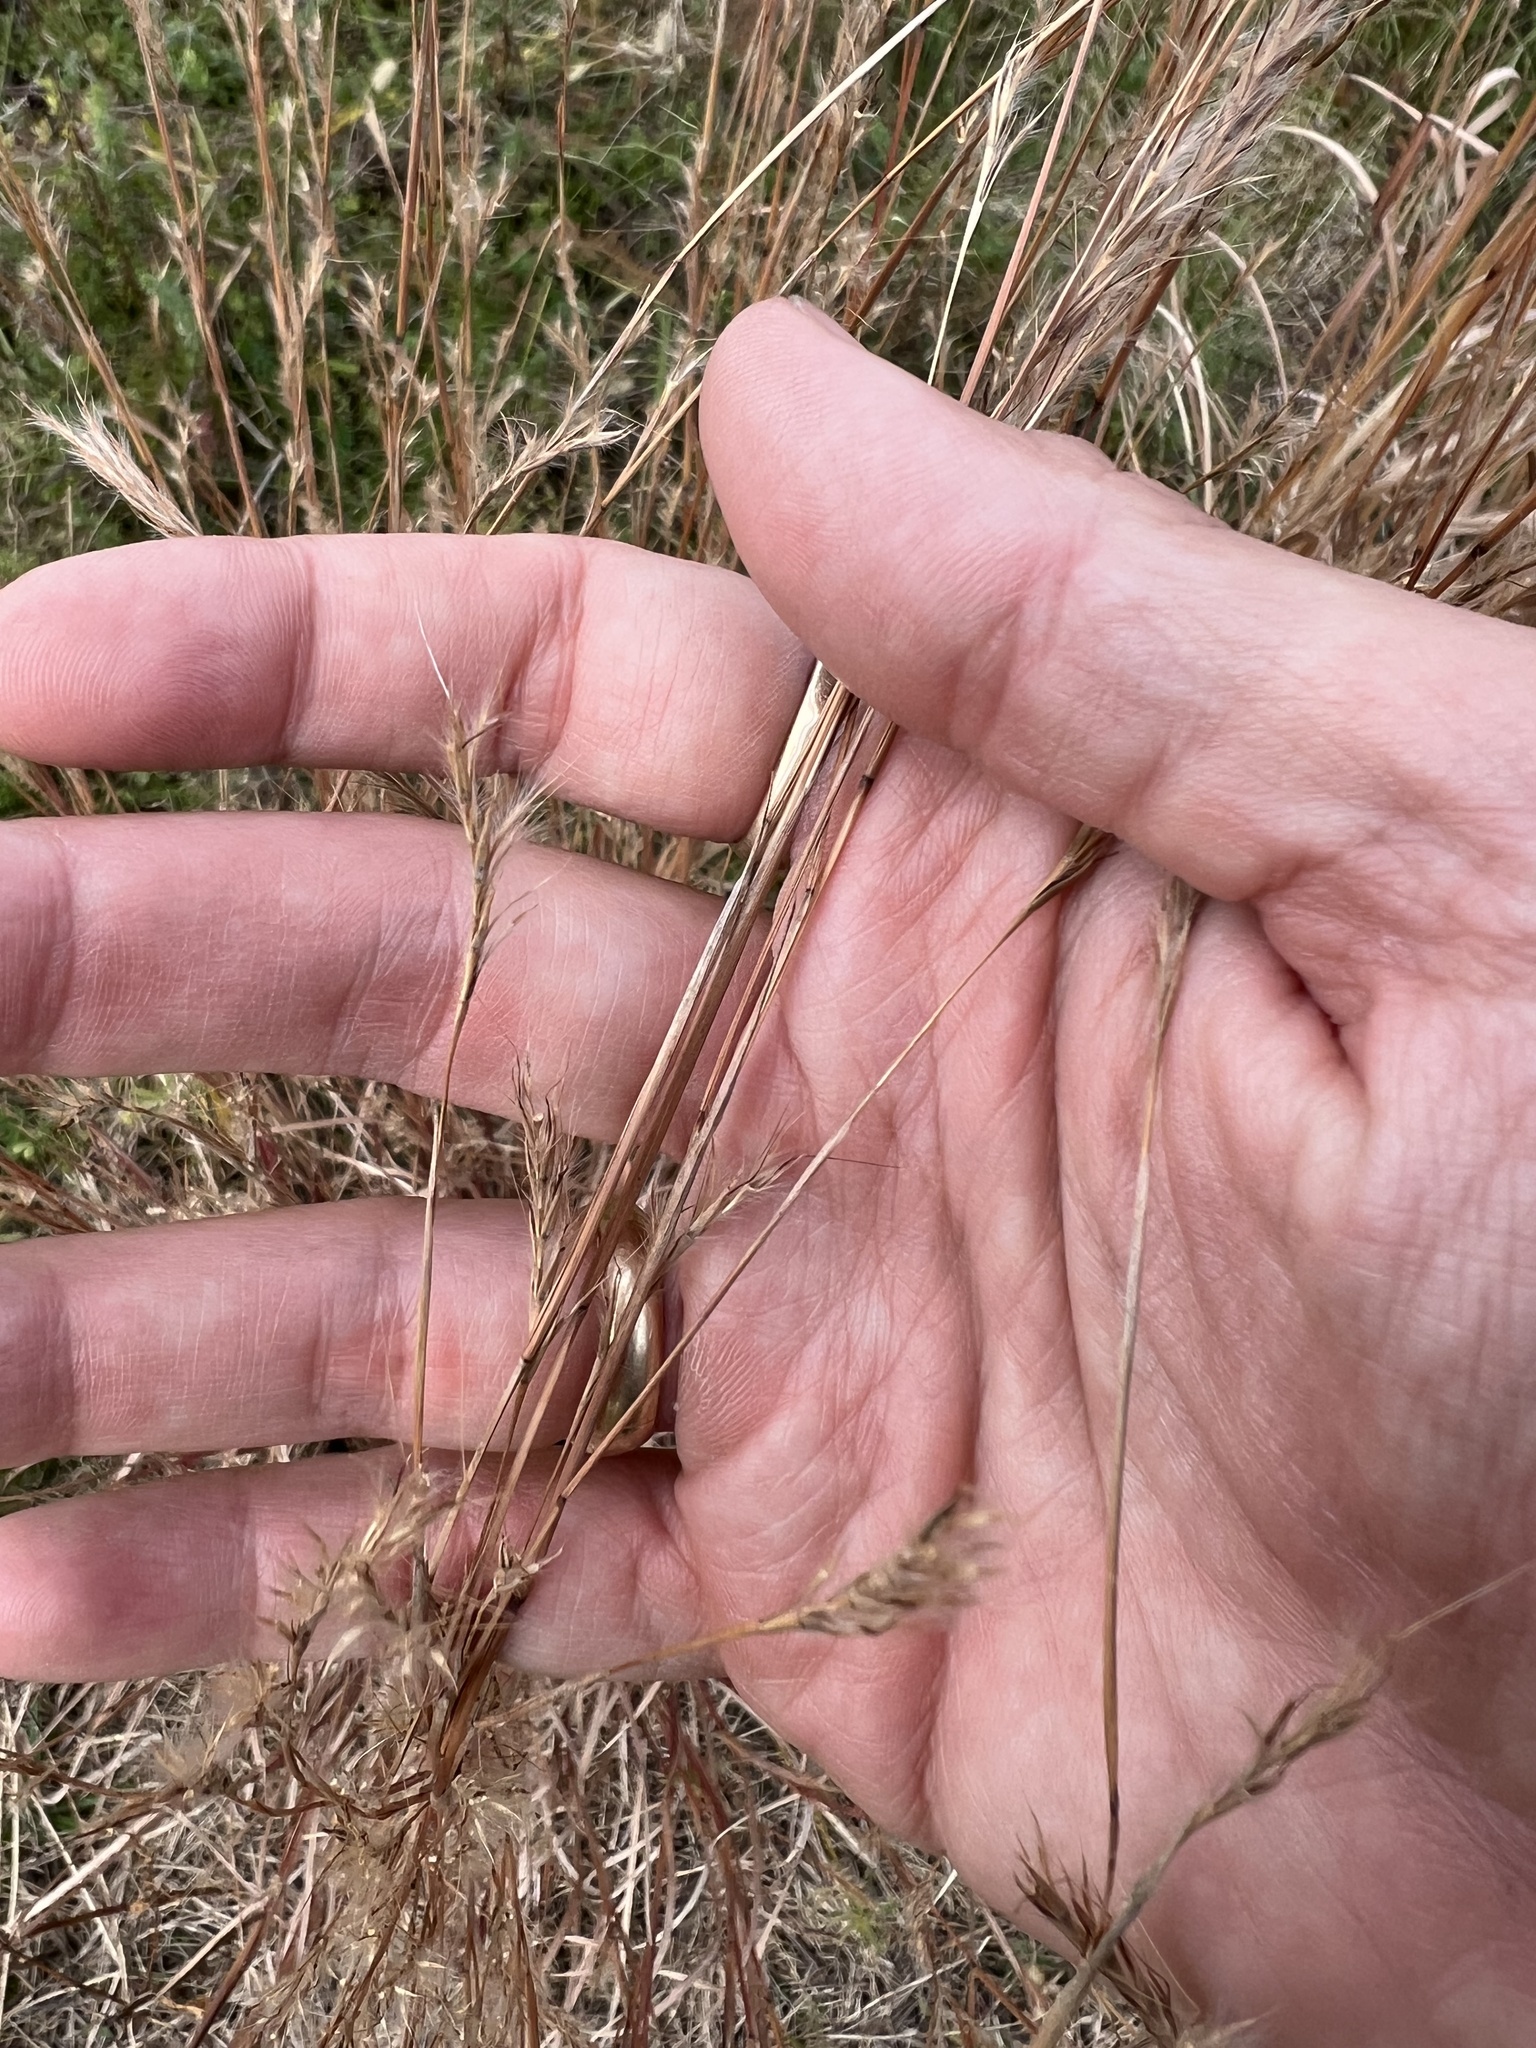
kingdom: Plantae
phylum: Tracheophyta
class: Liliopsida
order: Poales
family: Poaceae
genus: Schizachyrium
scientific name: Schizachyrium scoparium
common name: Little bluestem
